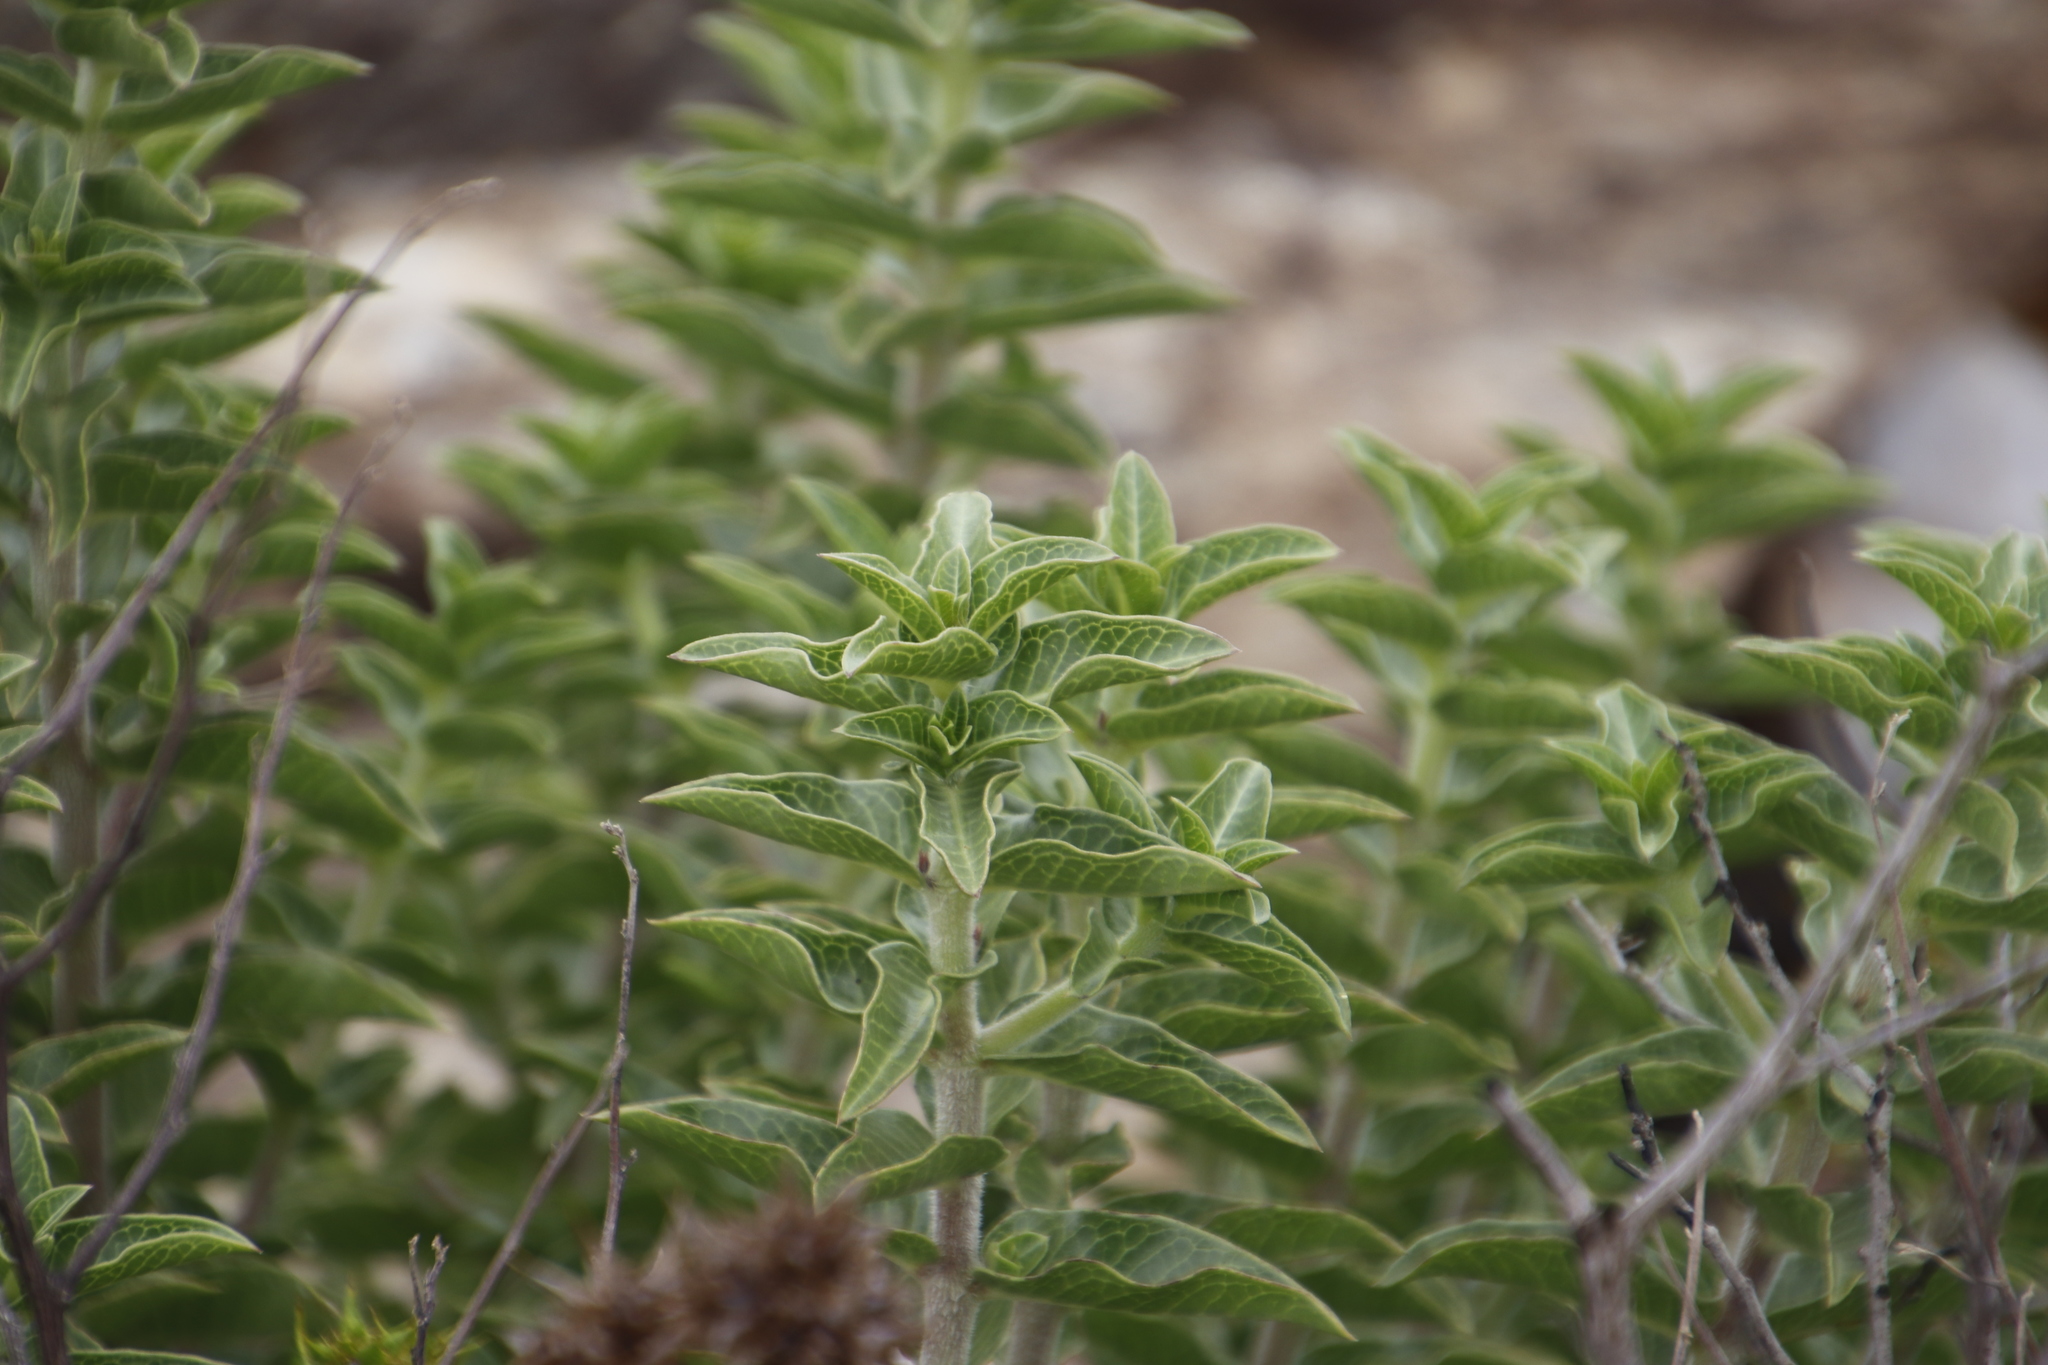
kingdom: Plantae
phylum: Tracheophyta
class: Magnoliopsida
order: Gentianales
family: Apocynaceae
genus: Gomphocarpus
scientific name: Gomphocarpus cancellatus
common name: Wild cotton
